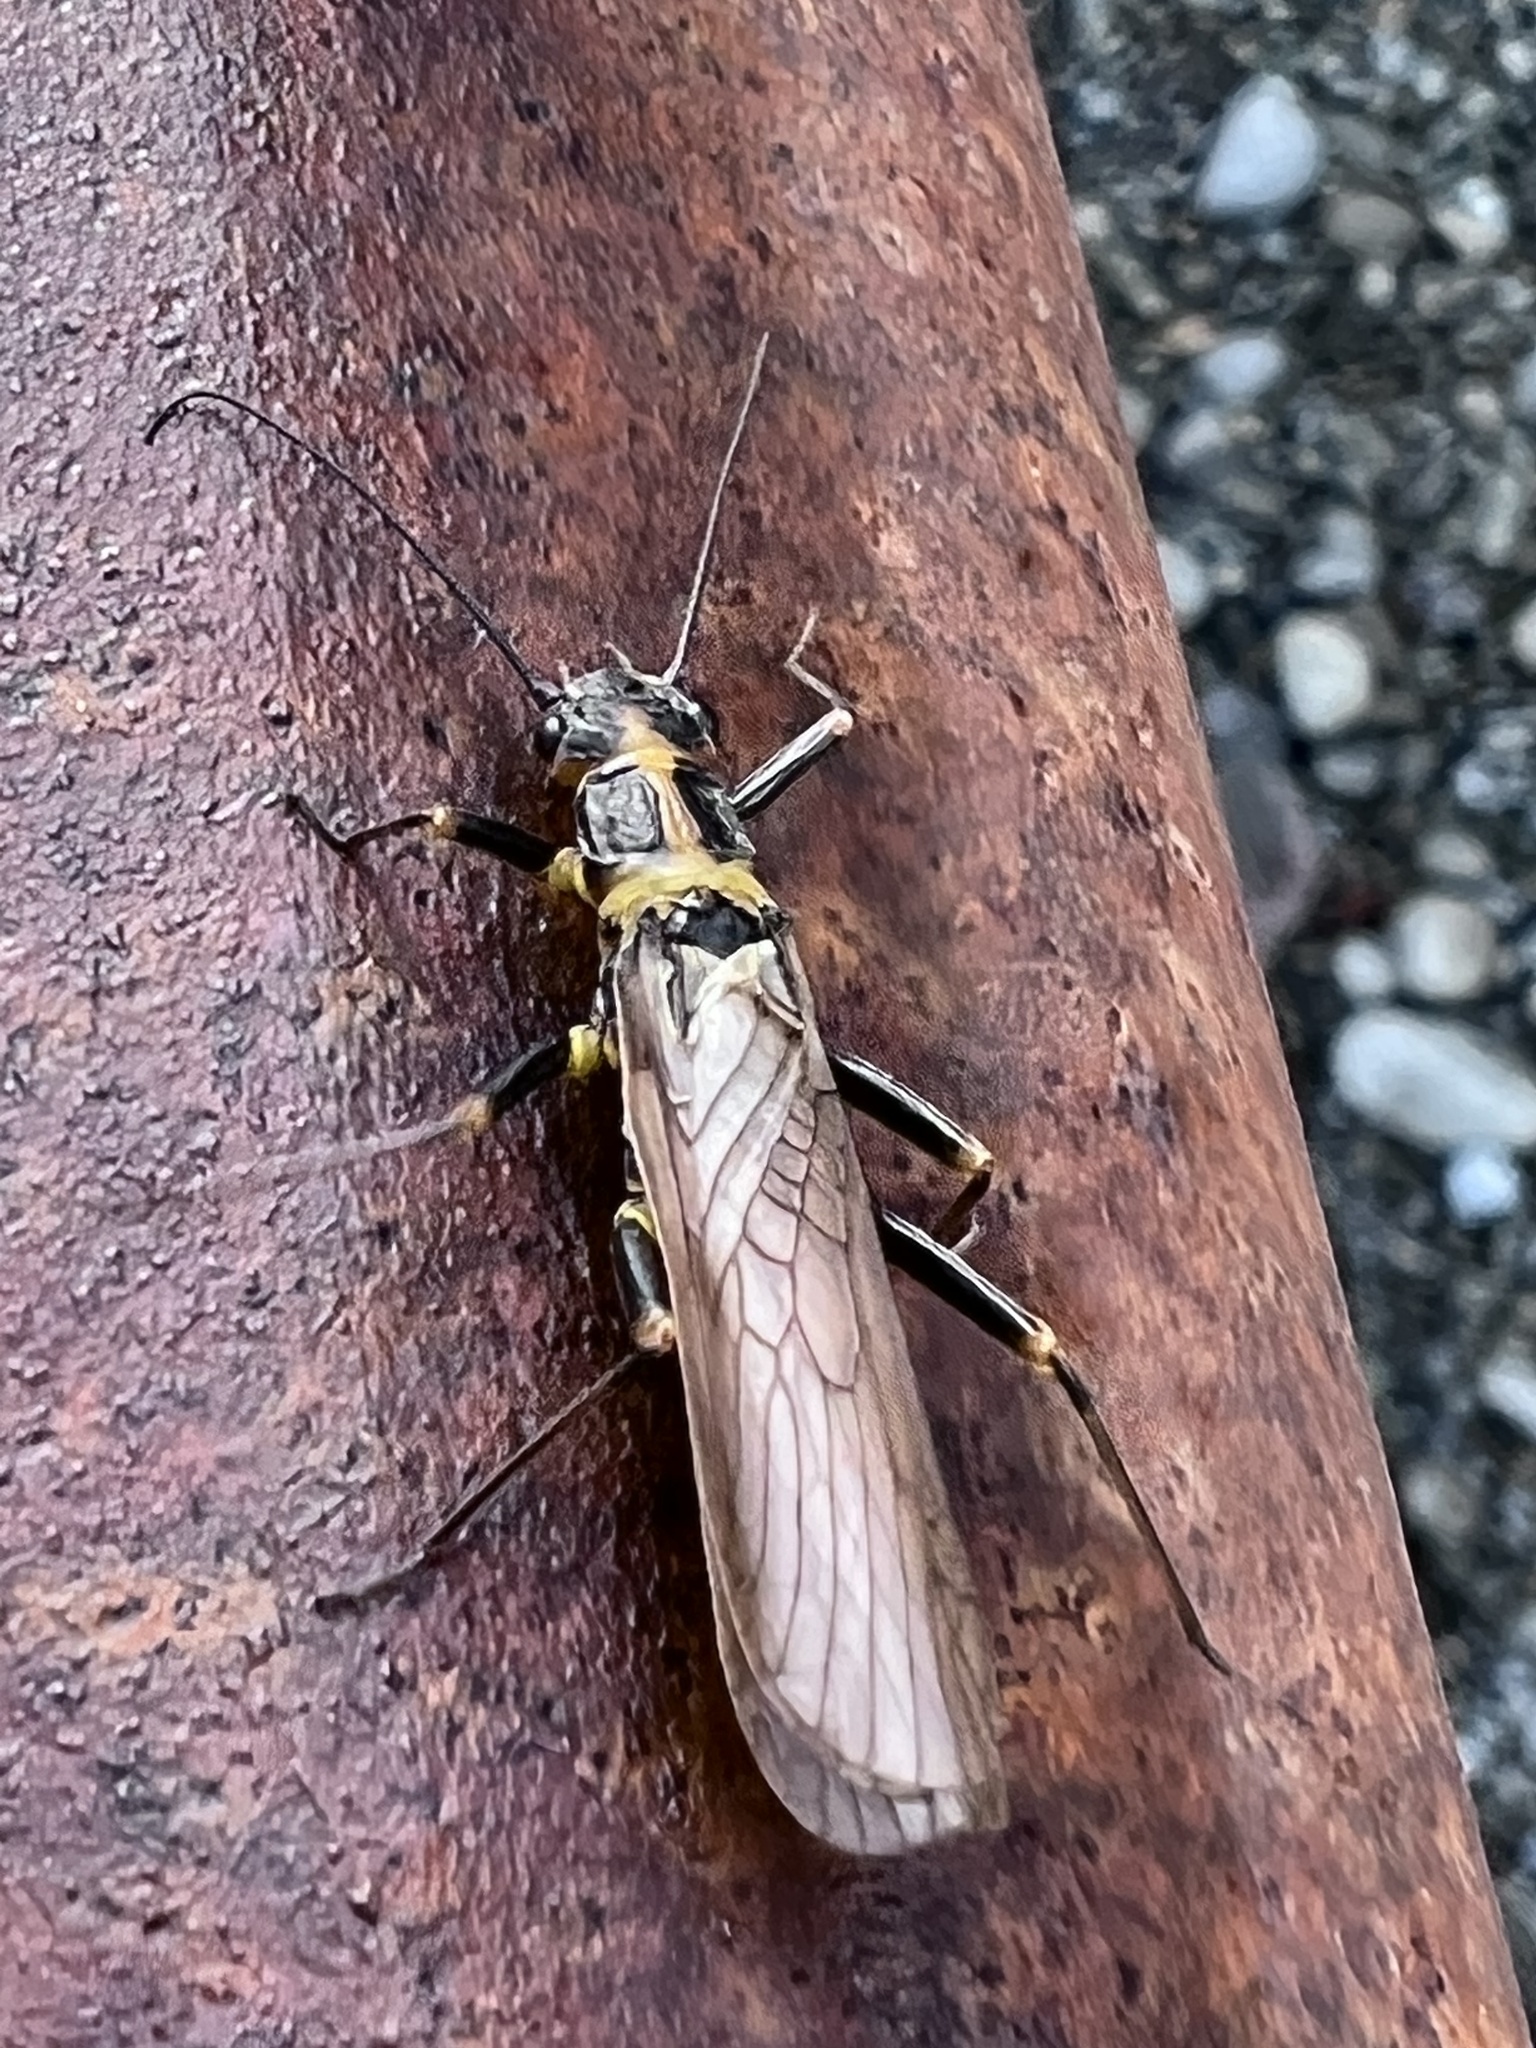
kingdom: Animalia
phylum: Arthropoda
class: Insecta
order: Plecoptera
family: Perlodidae
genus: Skwala
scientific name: Skwala americana
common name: American springfly
